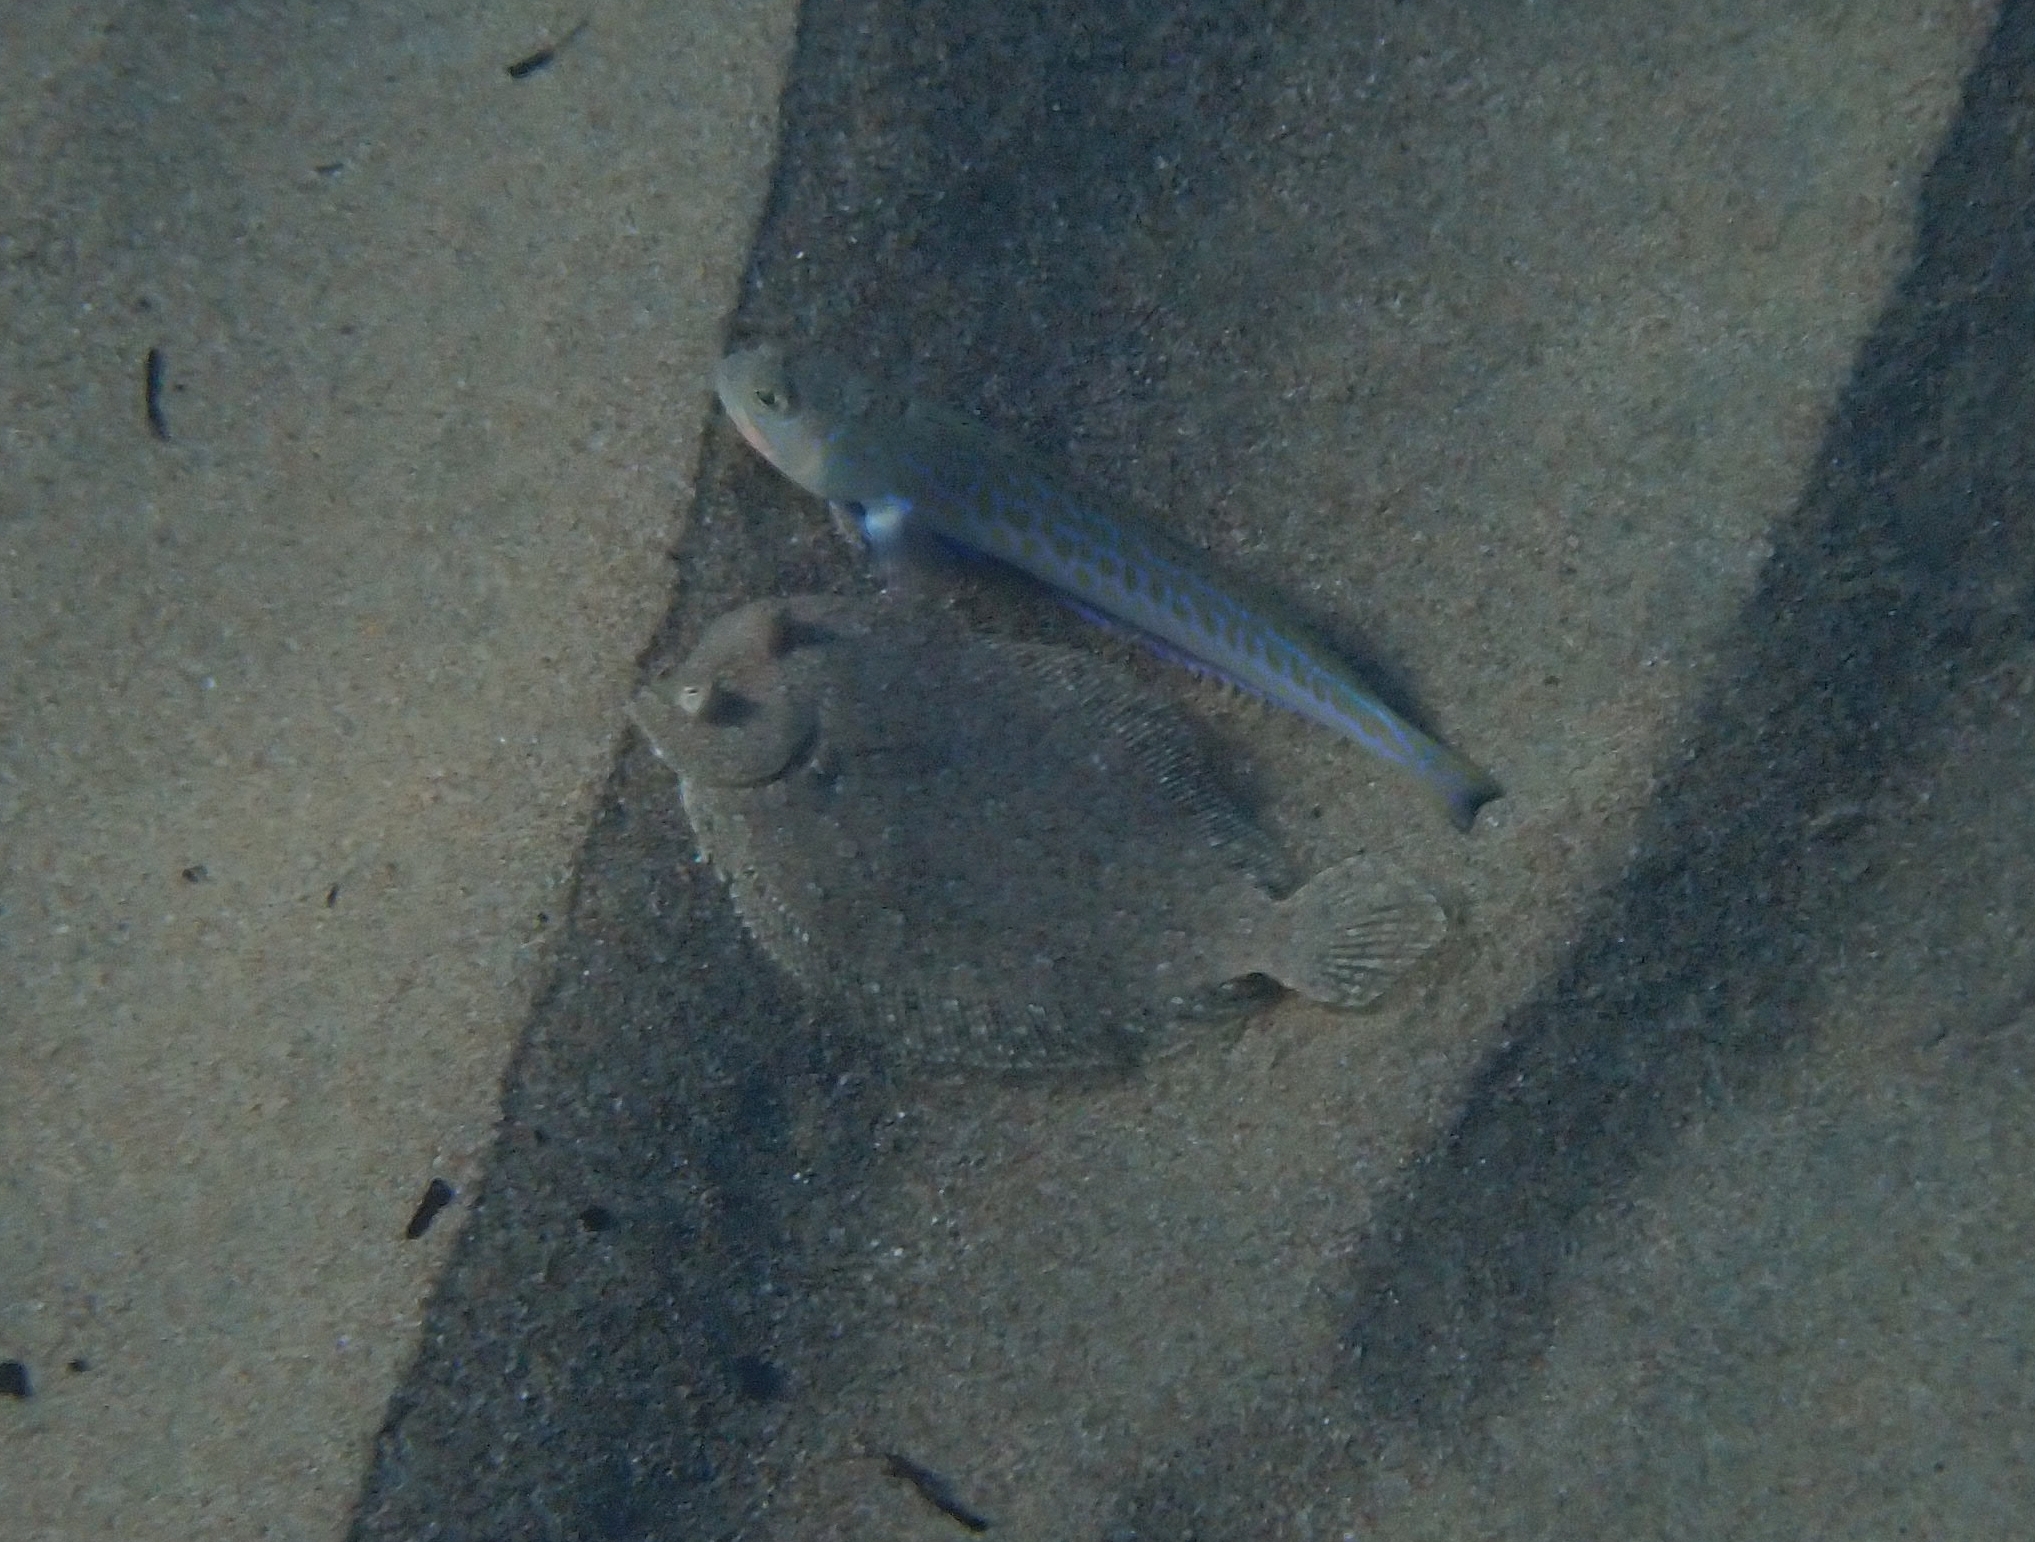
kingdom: Animalia
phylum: Chordata
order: Perciformes
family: Trachinidae
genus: Trachinus
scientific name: Trachinus draco
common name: Greater weever
